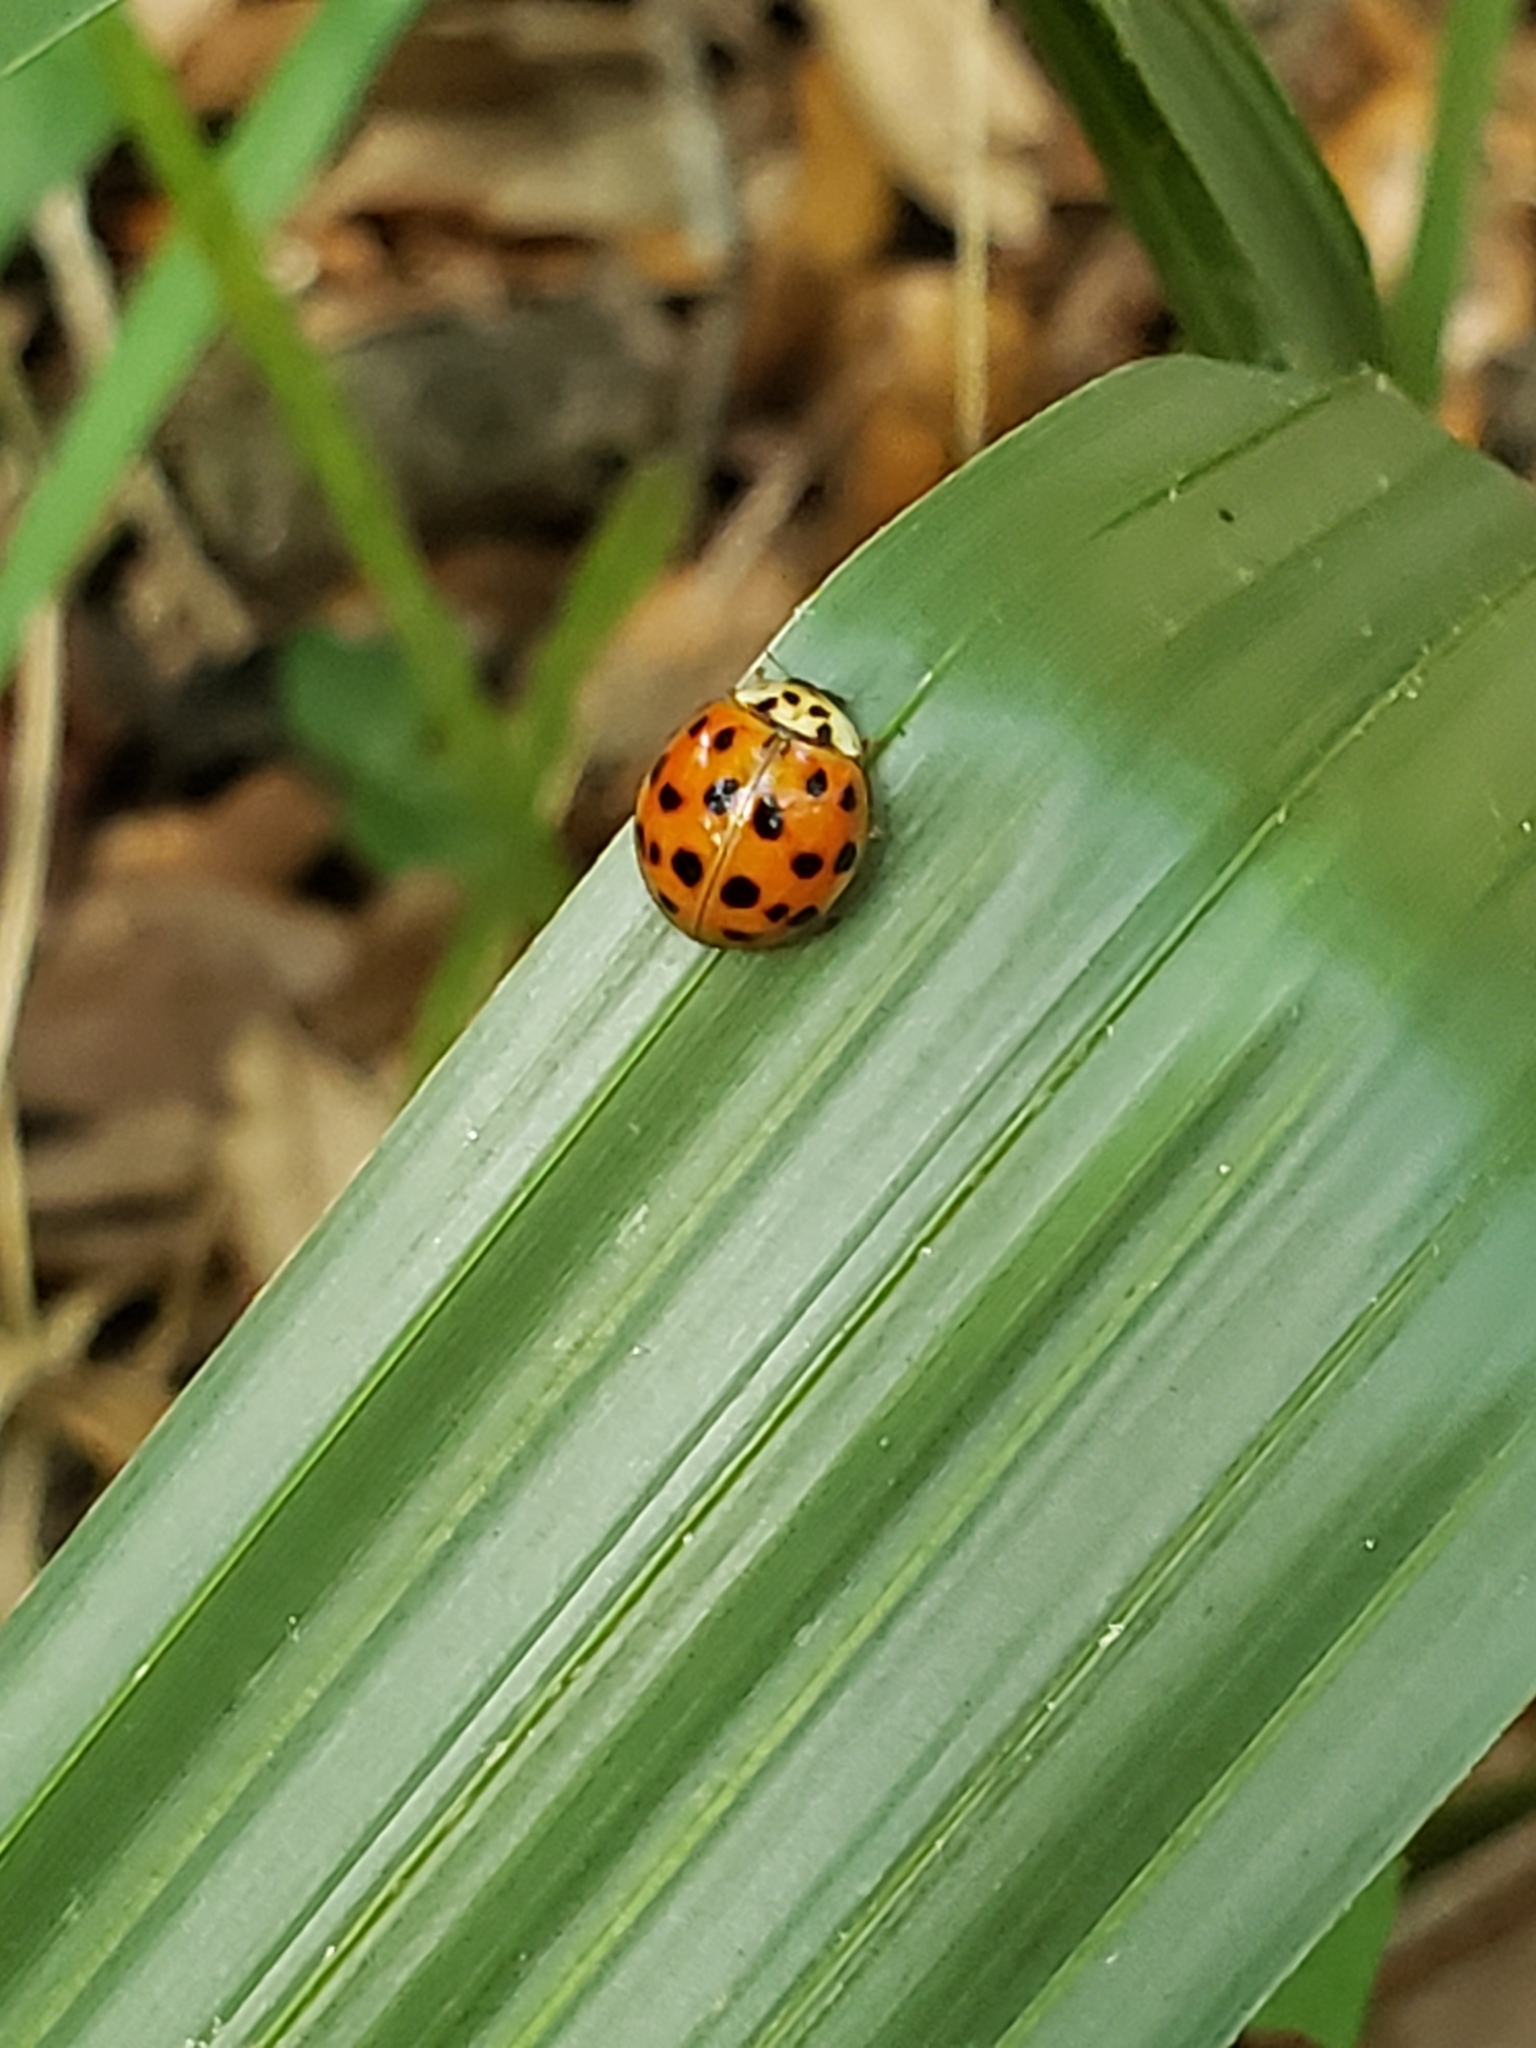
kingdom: Animalia
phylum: Arthropoda
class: Insecta
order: Coleoptera
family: Coccinellidae
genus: Harmonia
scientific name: Harmonia axyridis
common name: Harlequin ladybird
